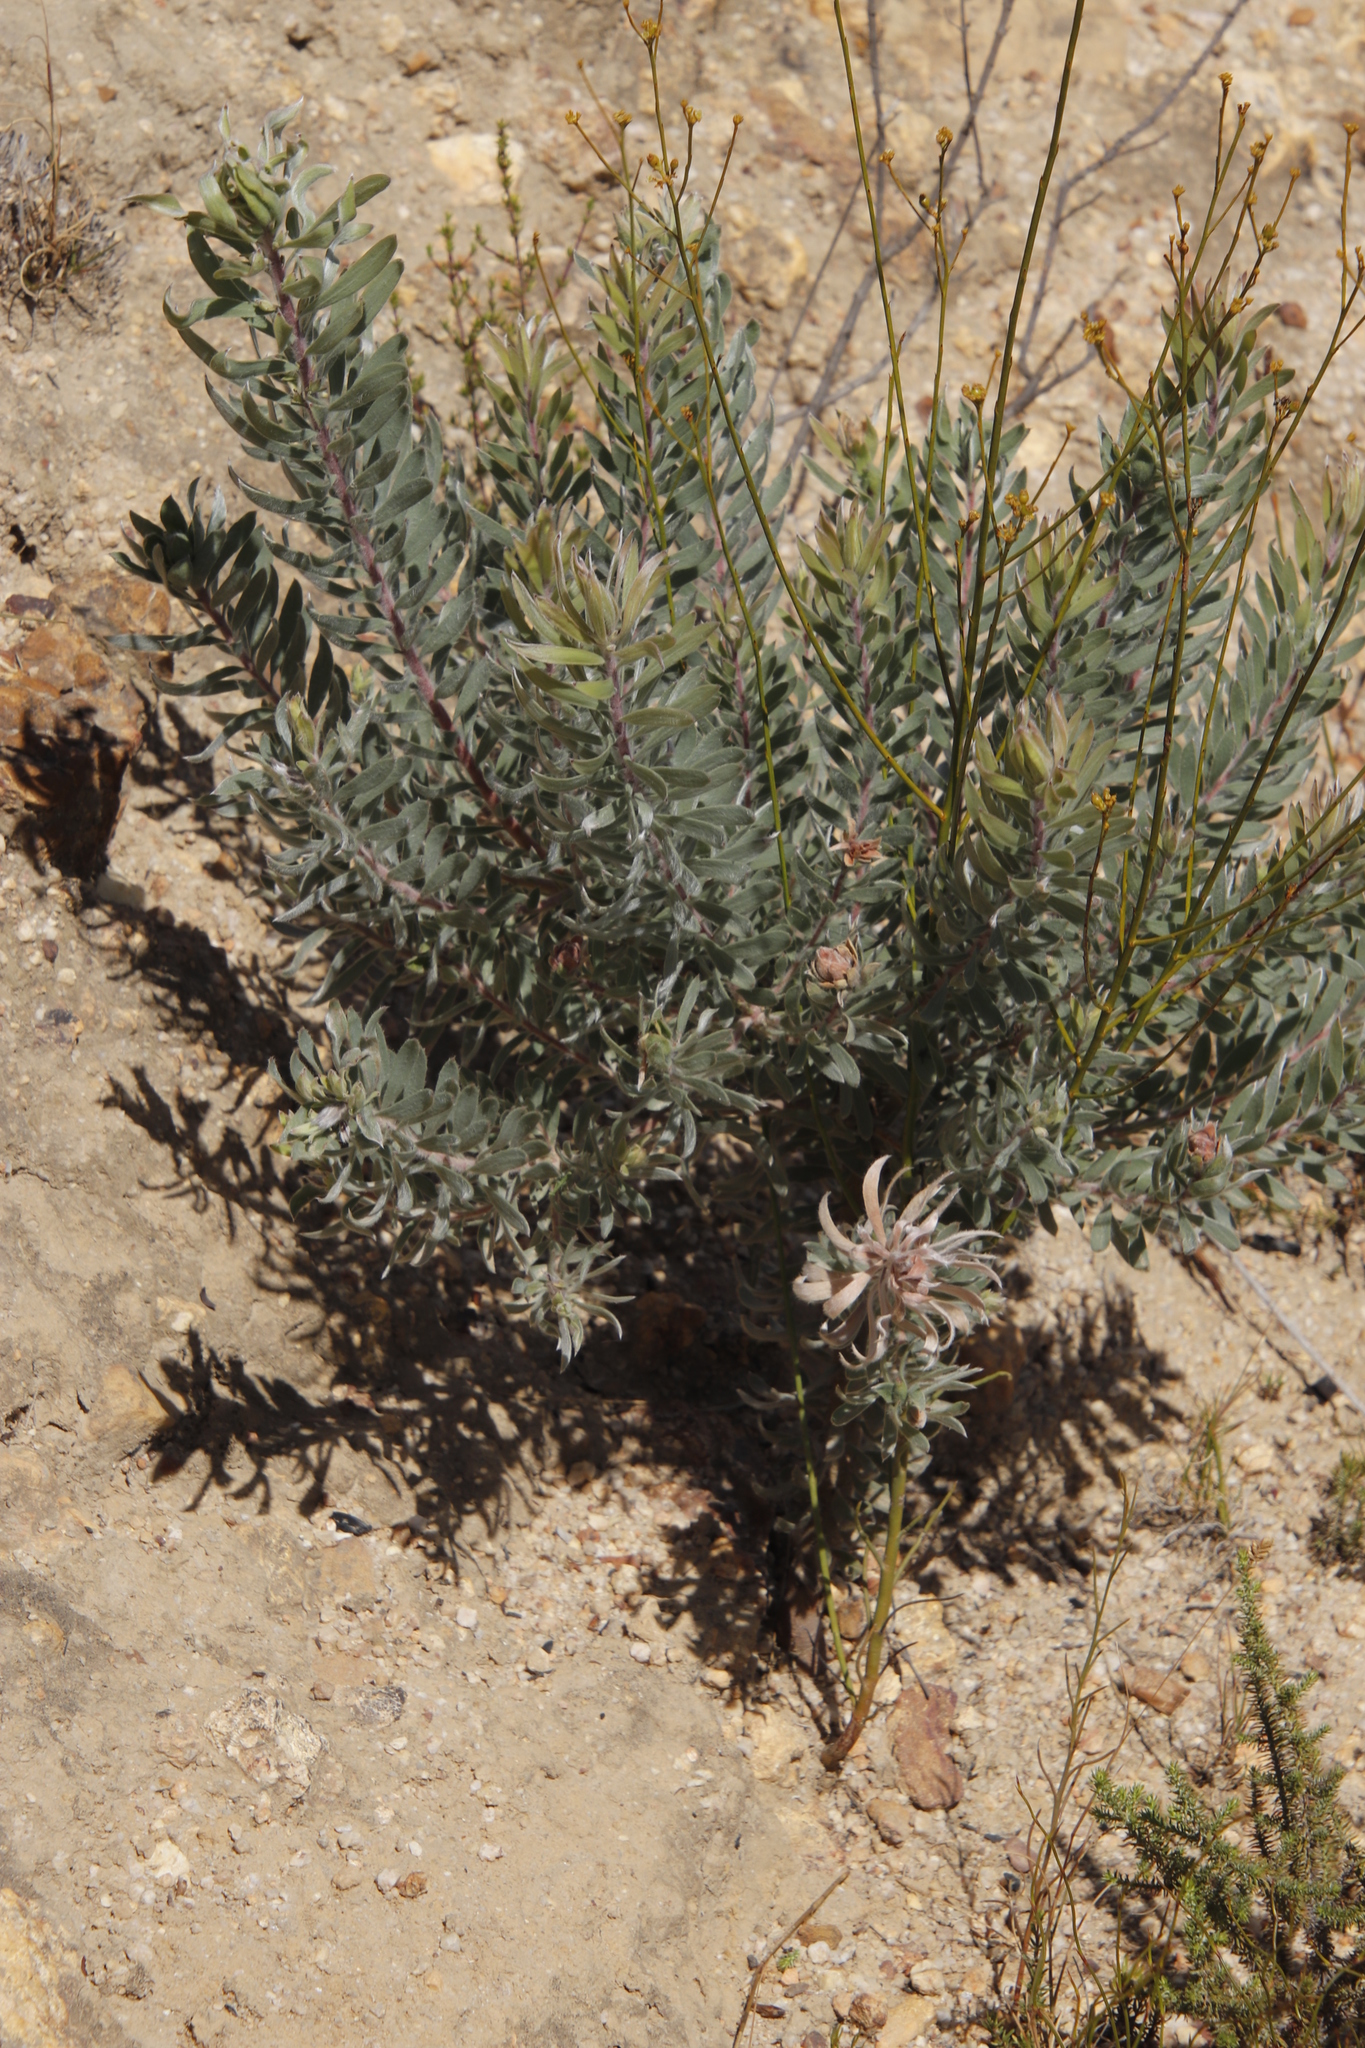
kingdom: Plantae
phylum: Tracheophyta
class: Magnoliopsida
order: Proteales
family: Proteaceae
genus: Leucadendron
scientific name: Leucadendron rubrum
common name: Spinning top
